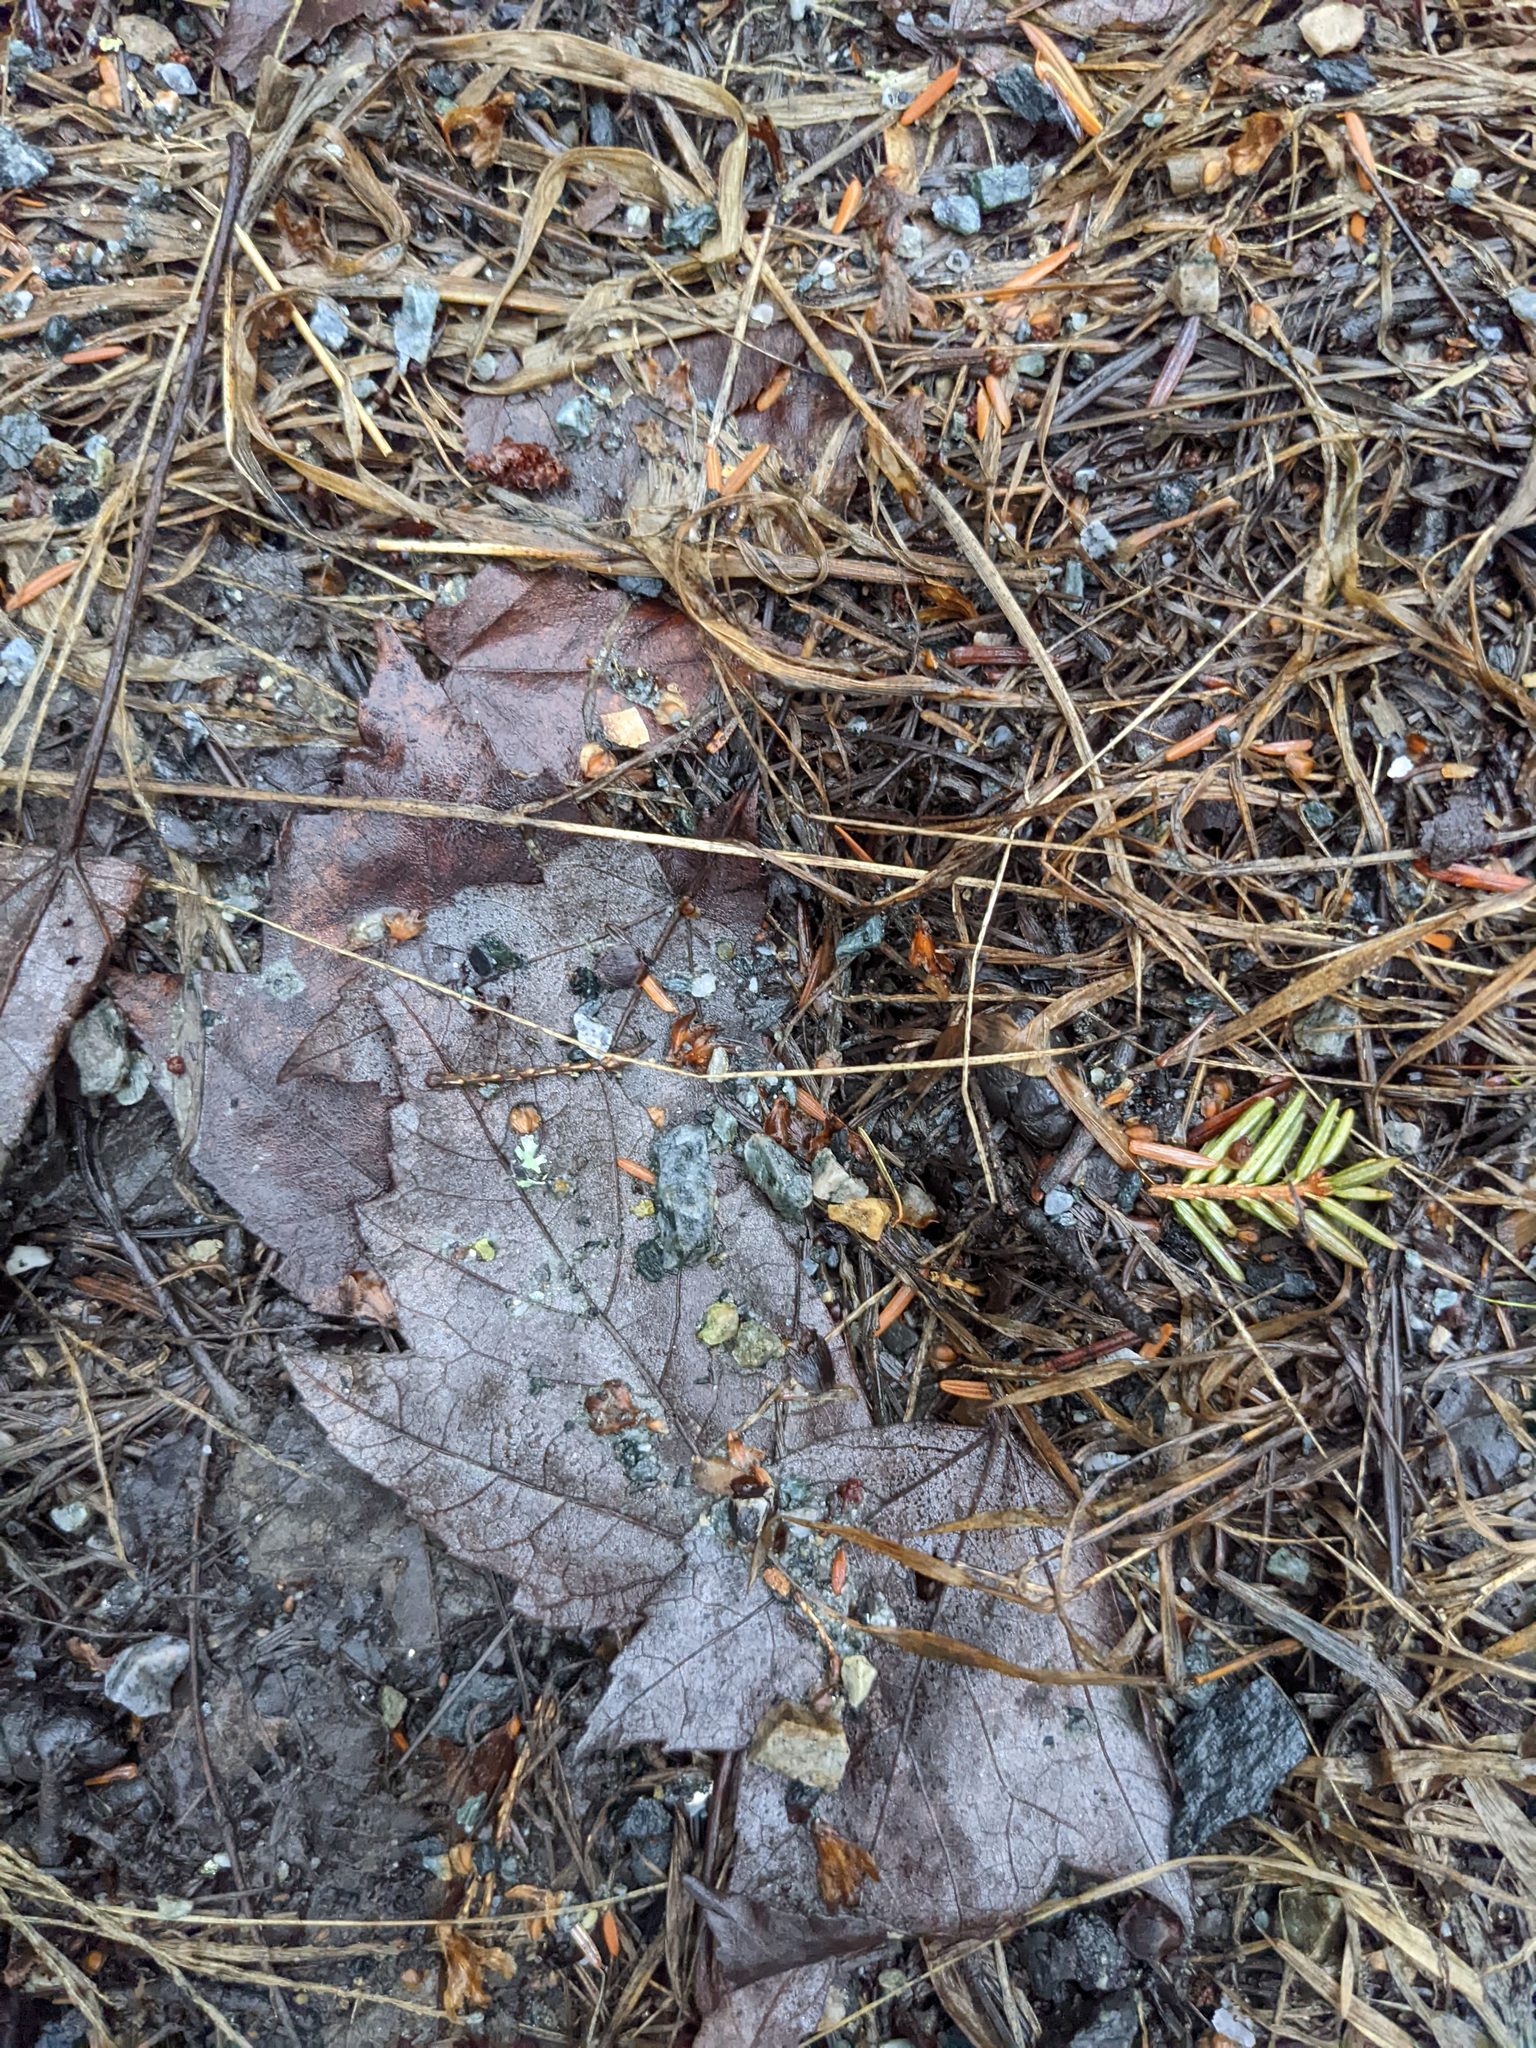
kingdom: Plantae
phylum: Tracheophyta
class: Pinopsida
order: Pinales
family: Pinaceae
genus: Tsuga
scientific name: Tsuga canadensis
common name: Eastern hemlock
